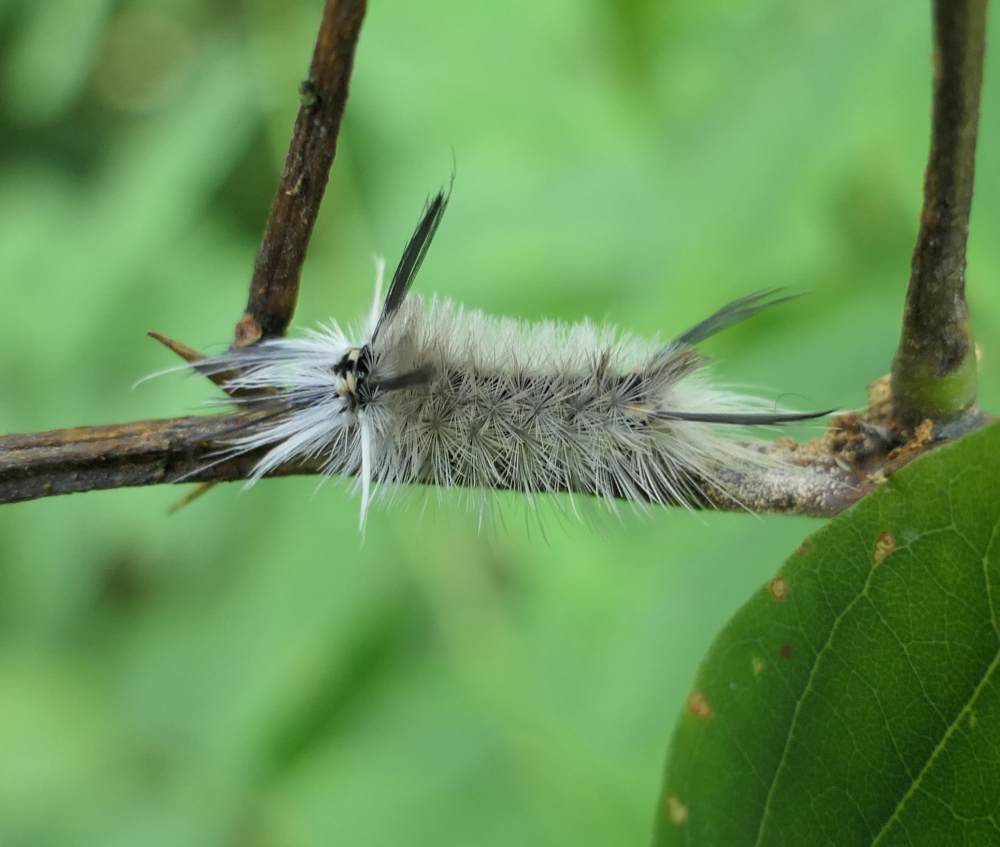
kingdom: Animalia
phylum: Arthropoda
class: Insecta
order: Lepidoptera
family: Erebidae
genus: Halysidota
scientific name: Halysidota tessellaris
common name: Banded tussock moth
